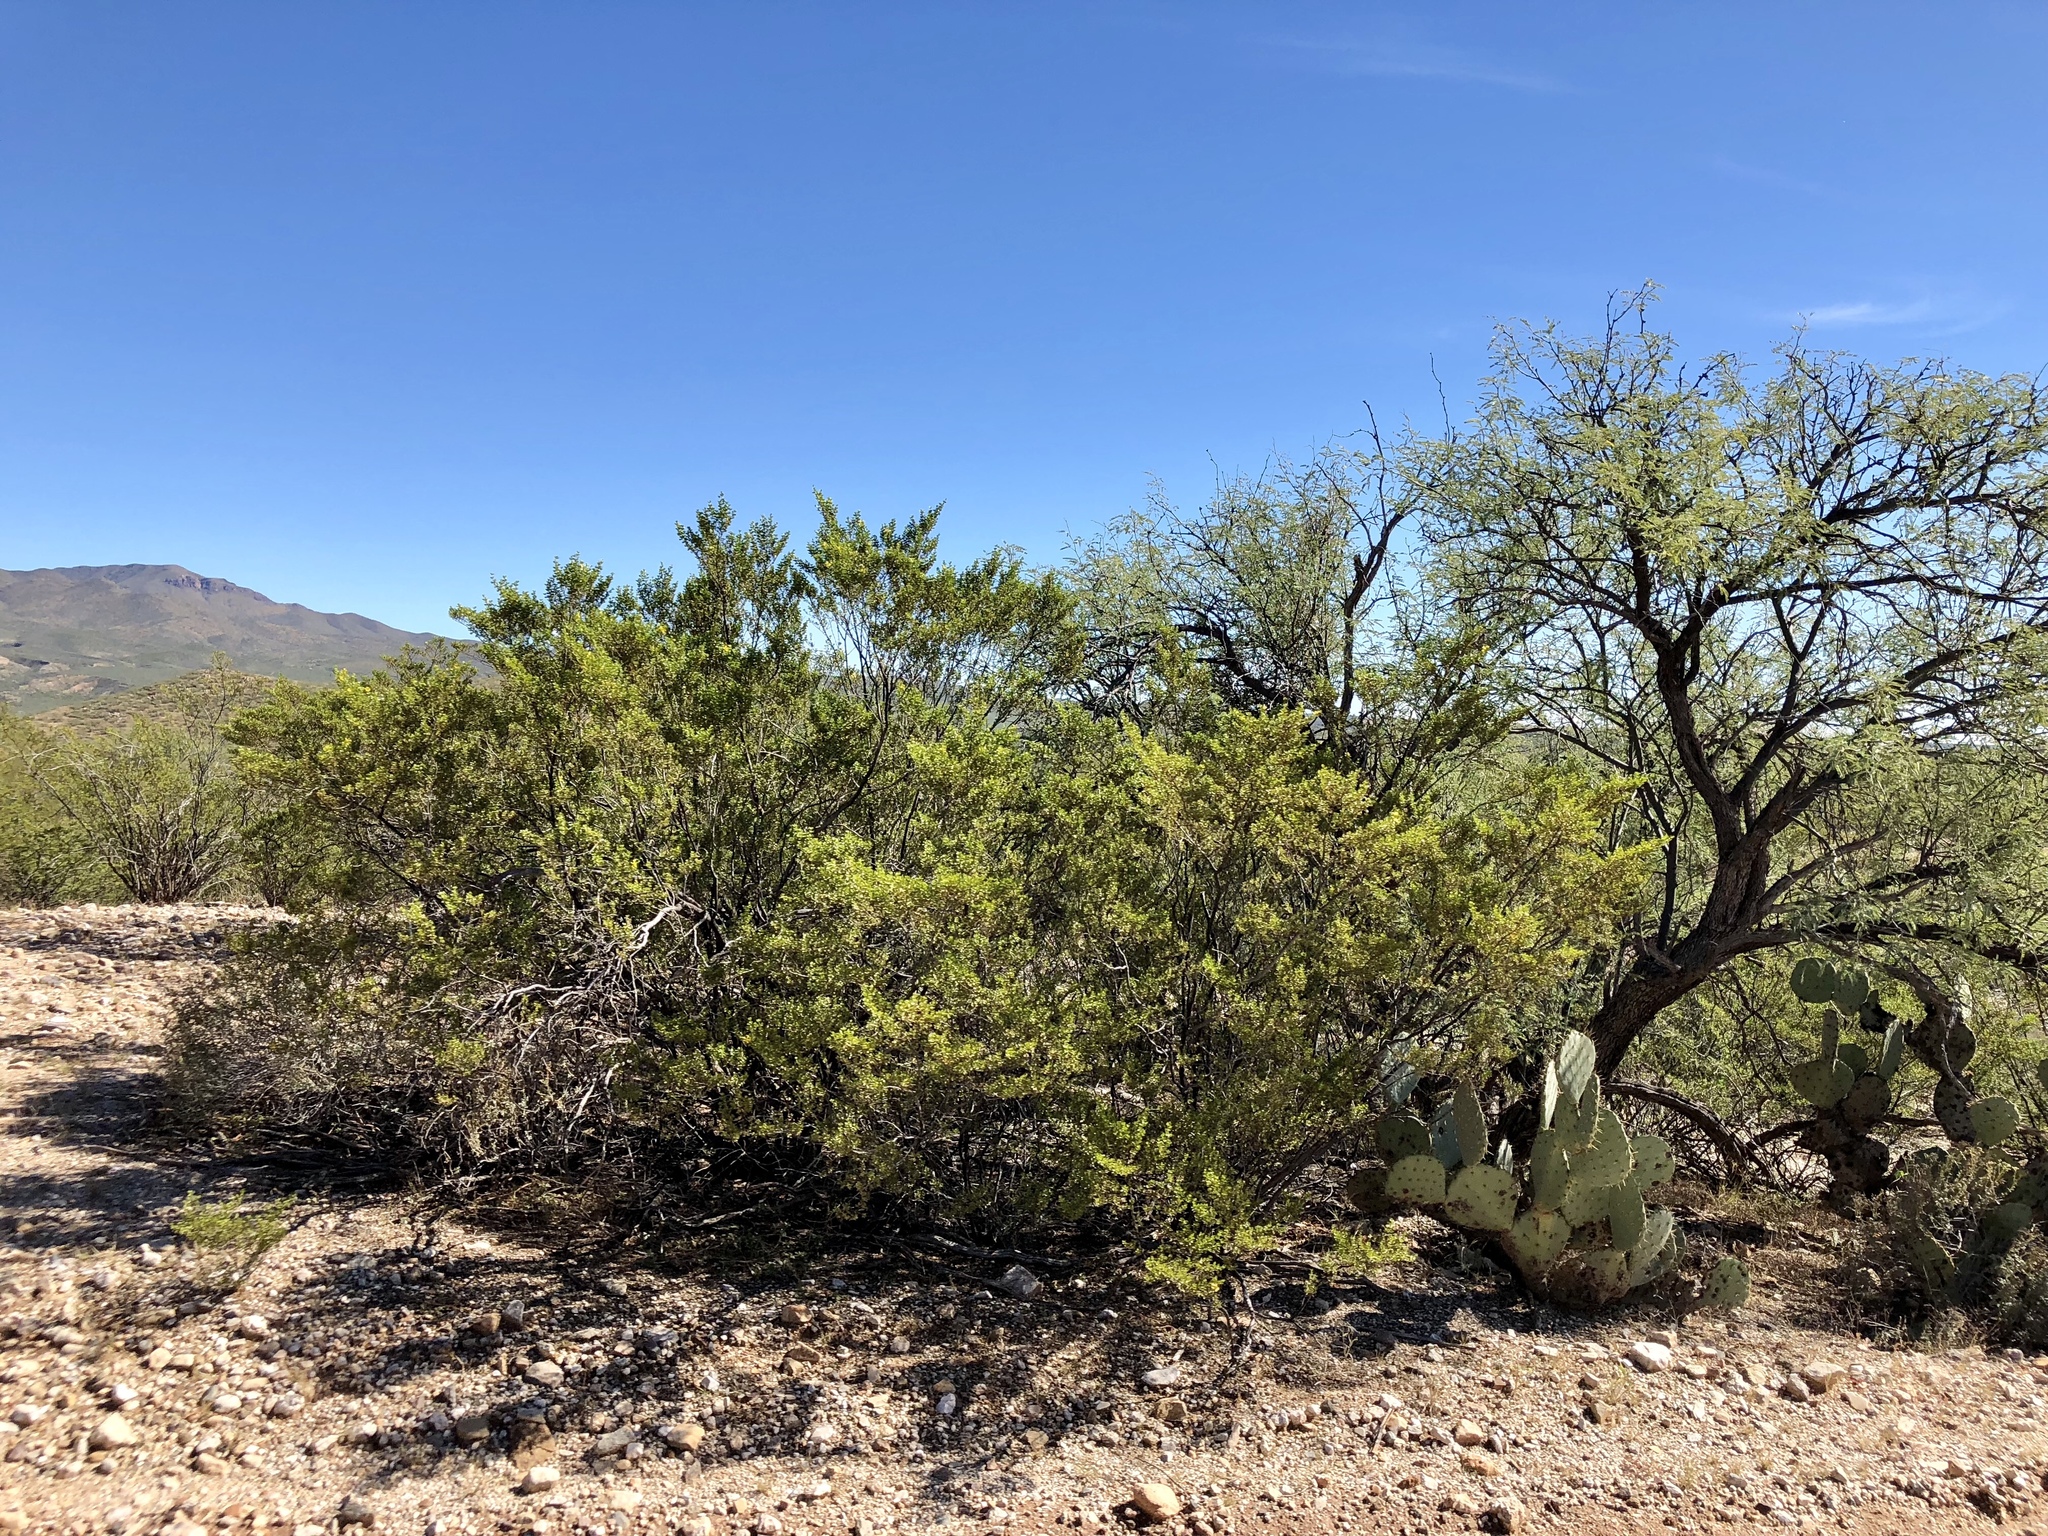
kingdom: Plantae
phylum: Tracheophyta
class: Magnoliopsida
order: Zygophyllales
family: Zygophyllaceae
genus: Larrea
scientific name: Larrea tridentata
